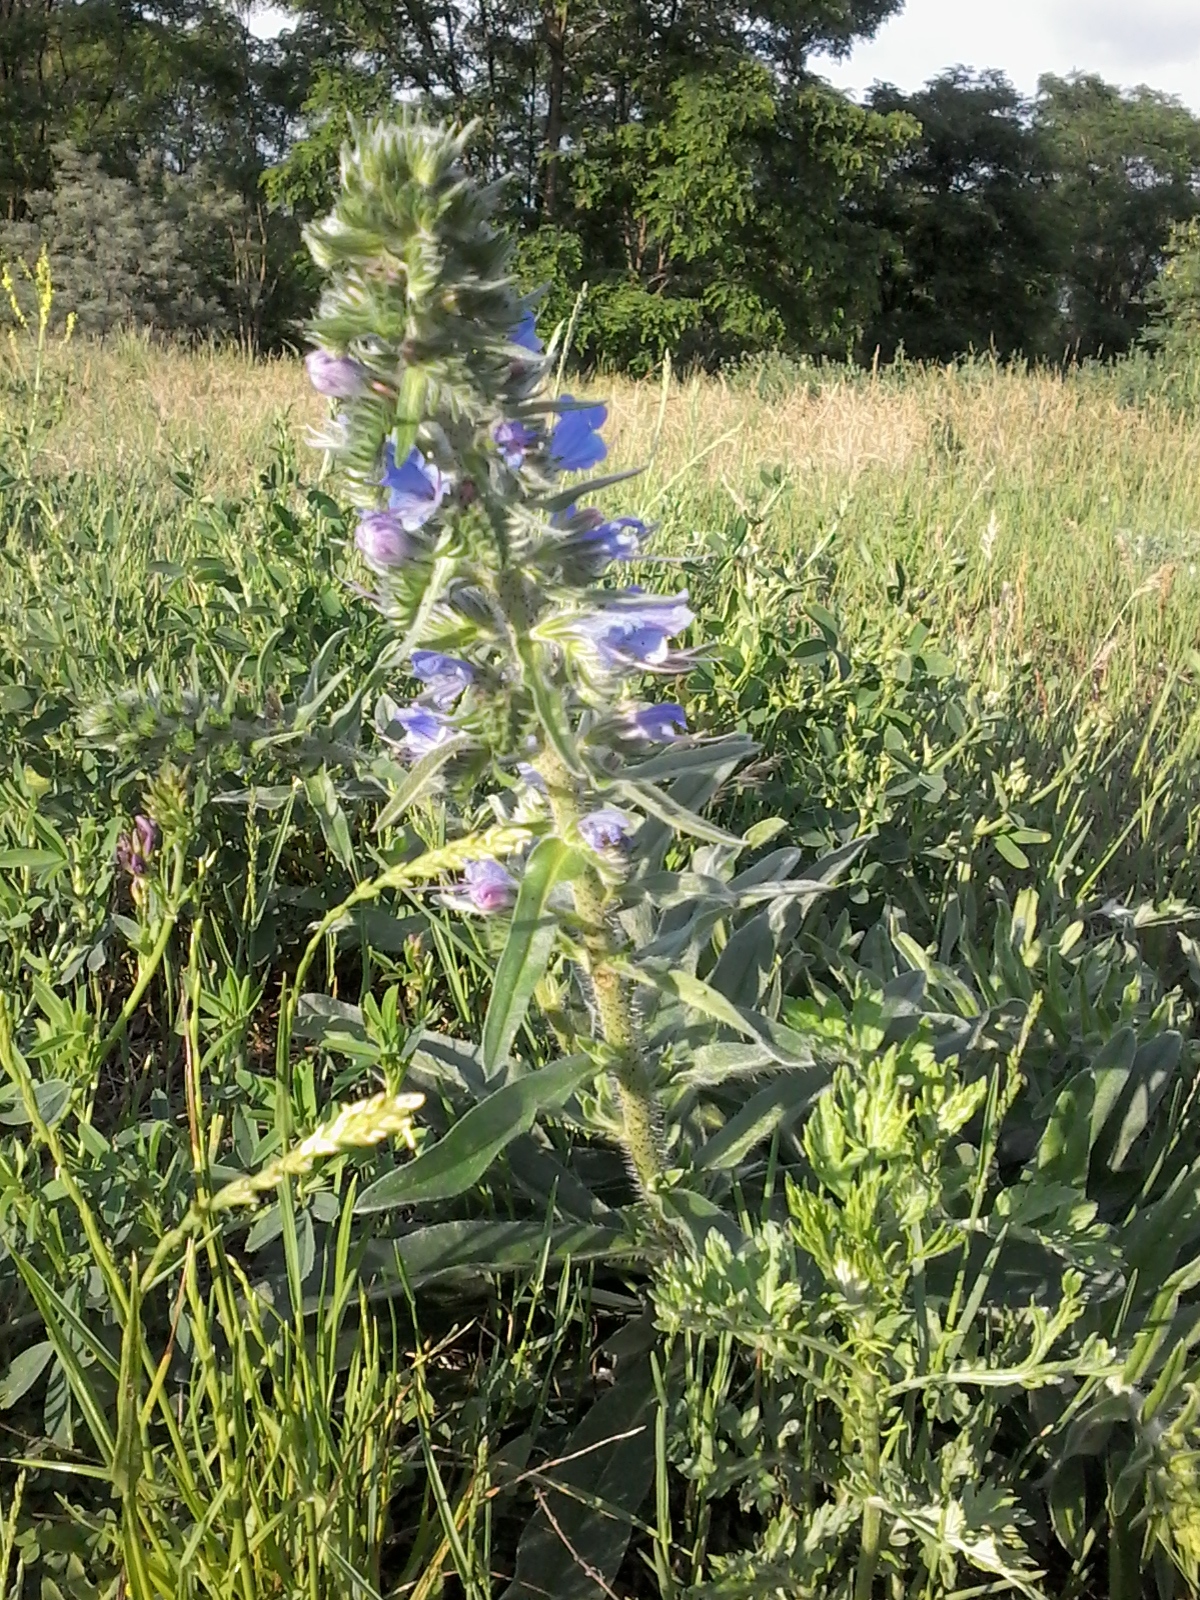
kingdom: Plantae
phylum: Tracheophyta
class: Magnoliopsida
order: Boraginales
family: Boraginaceae
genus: Echium
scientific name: Echium vulgare
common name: Common viper's bugloss
